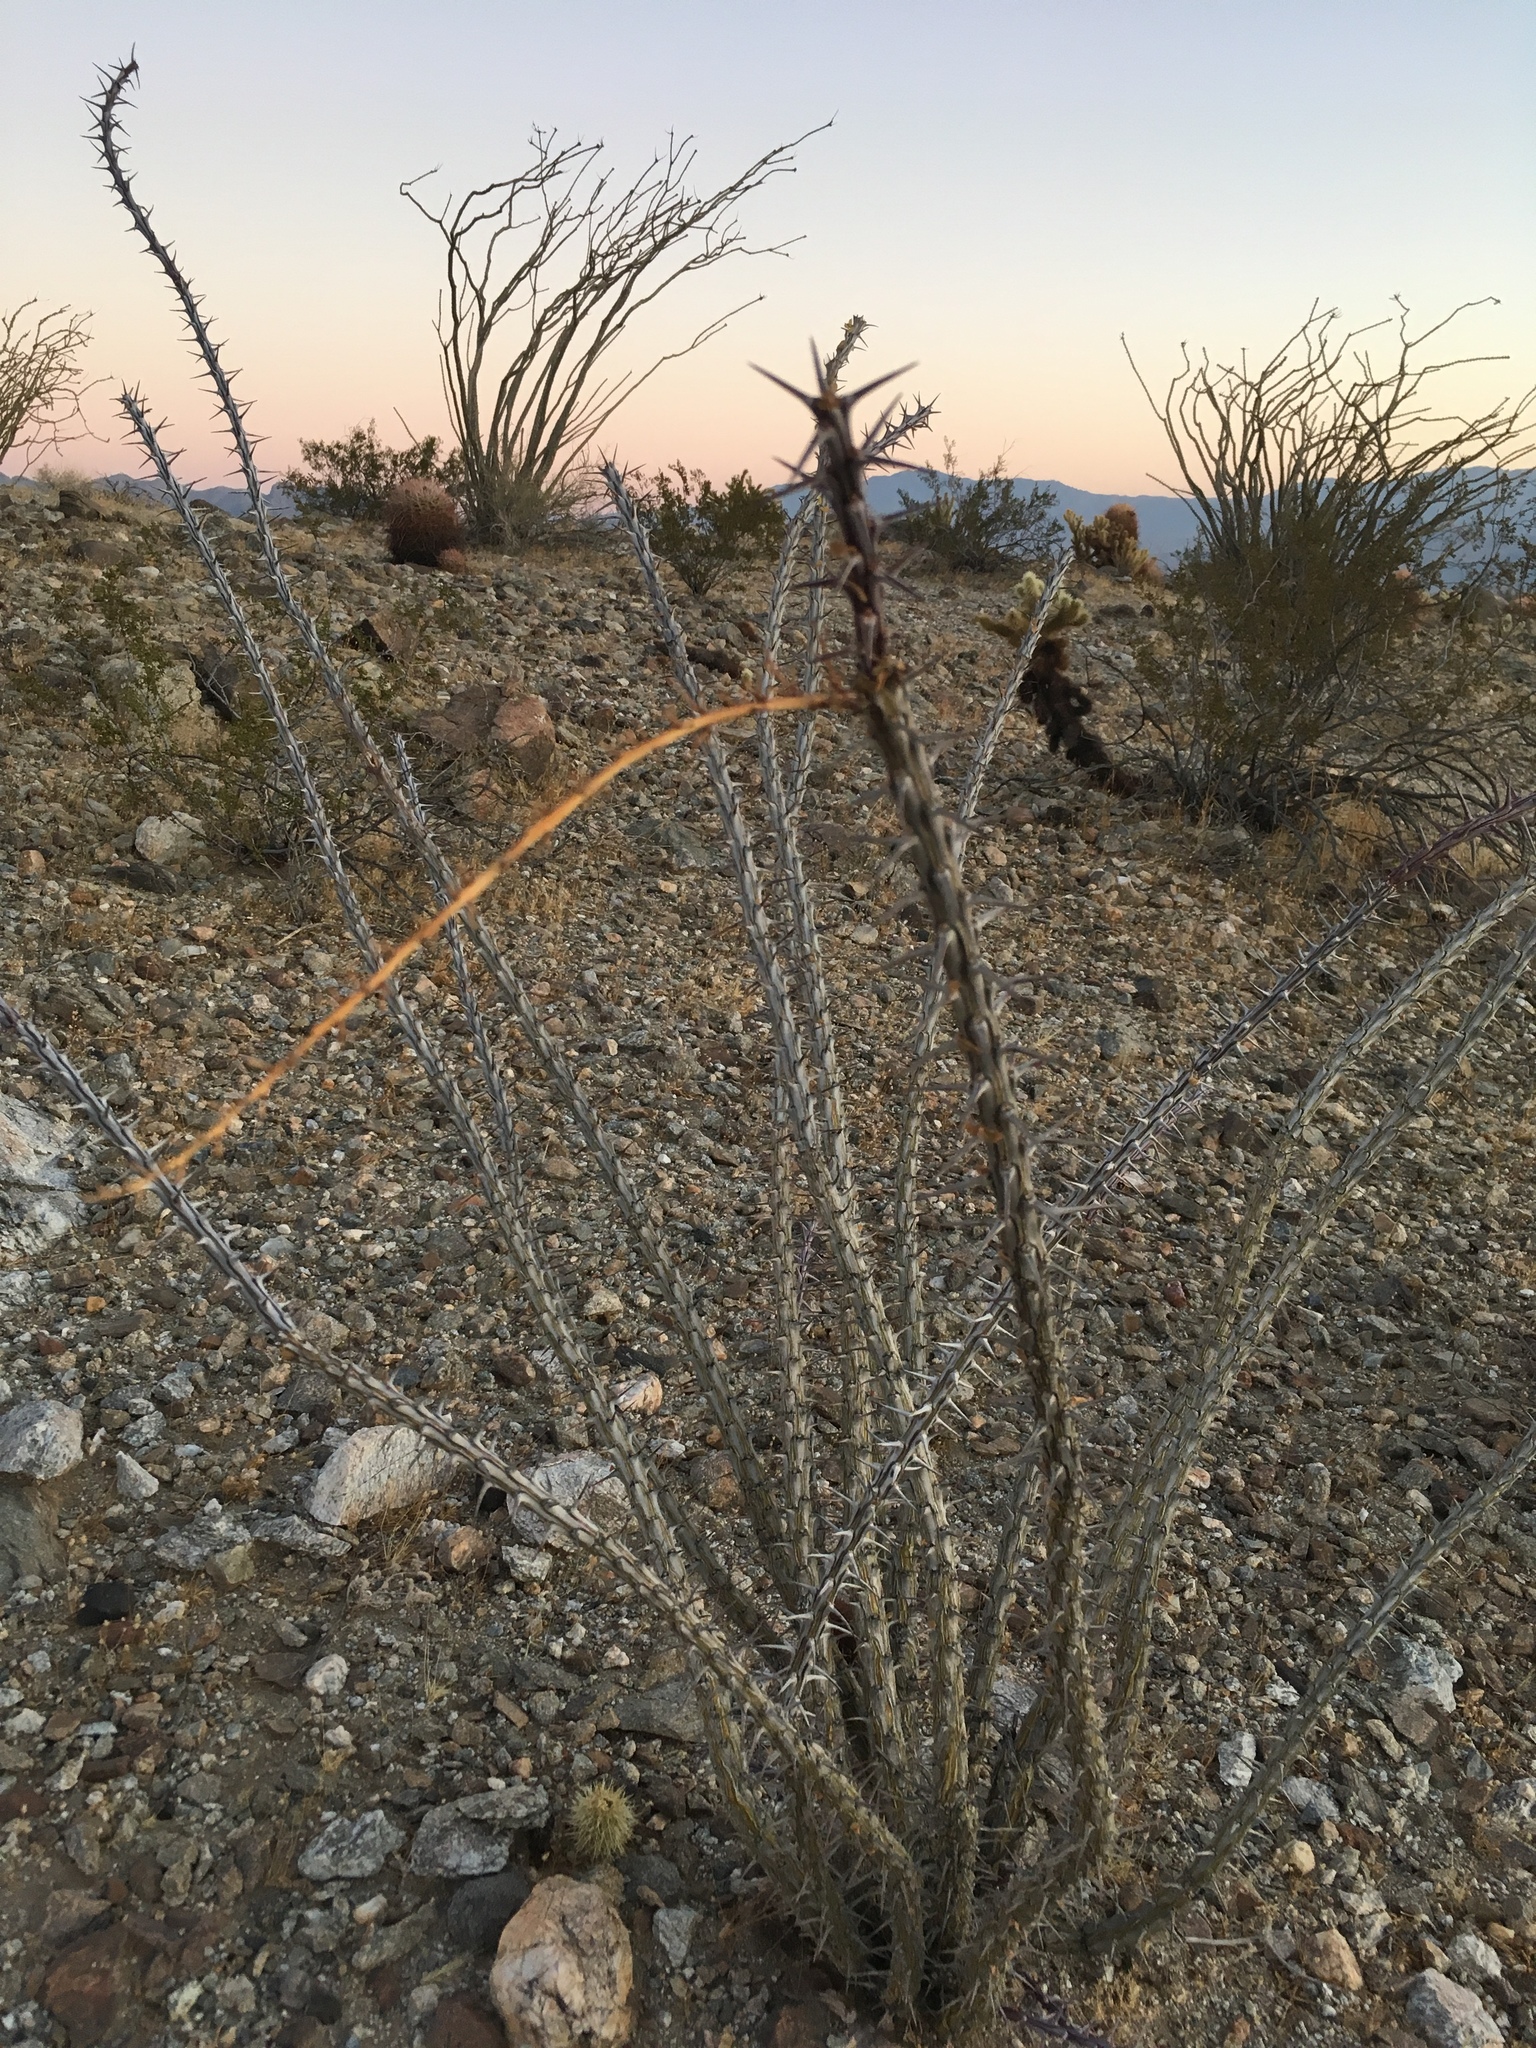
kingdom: Plantae
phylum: Tracheophyta
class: Magnoliopsida
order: Ericales
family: Fouquieriaceae
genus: Fouquieria
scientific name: Fouquieria splendens
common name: Vine-cactus
